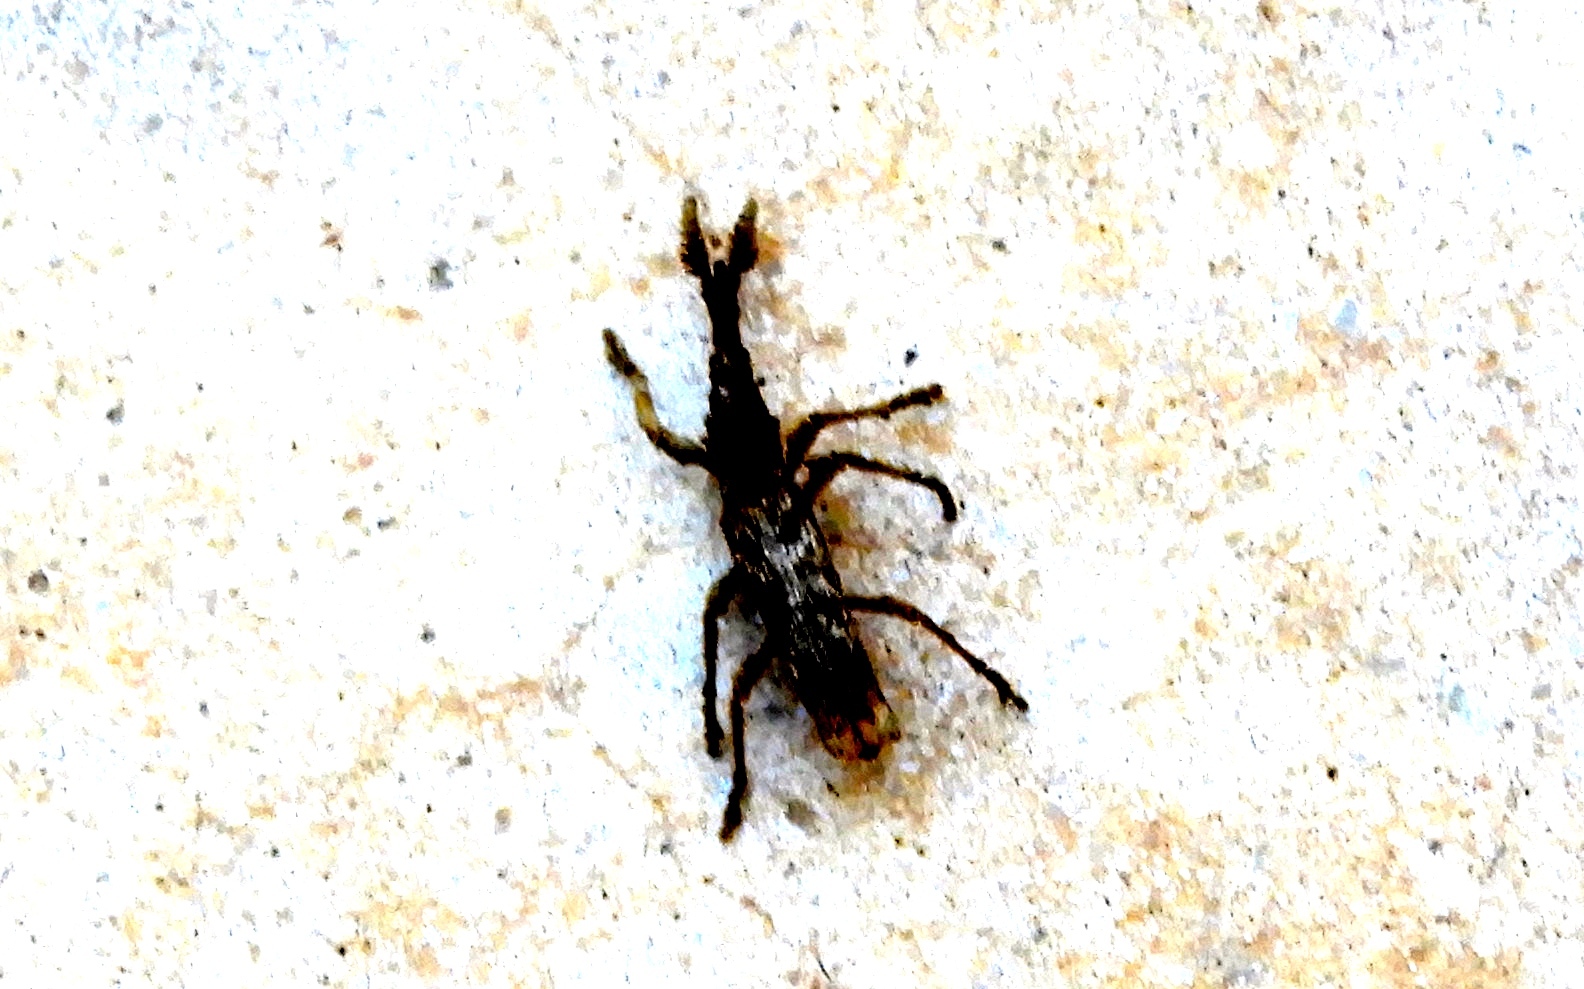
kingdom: Animalia
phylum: Arthropoda
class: Insecta
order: Coleoptera
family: Brentidae
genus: Ulocerus
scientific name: Ulocerus mexicanus
